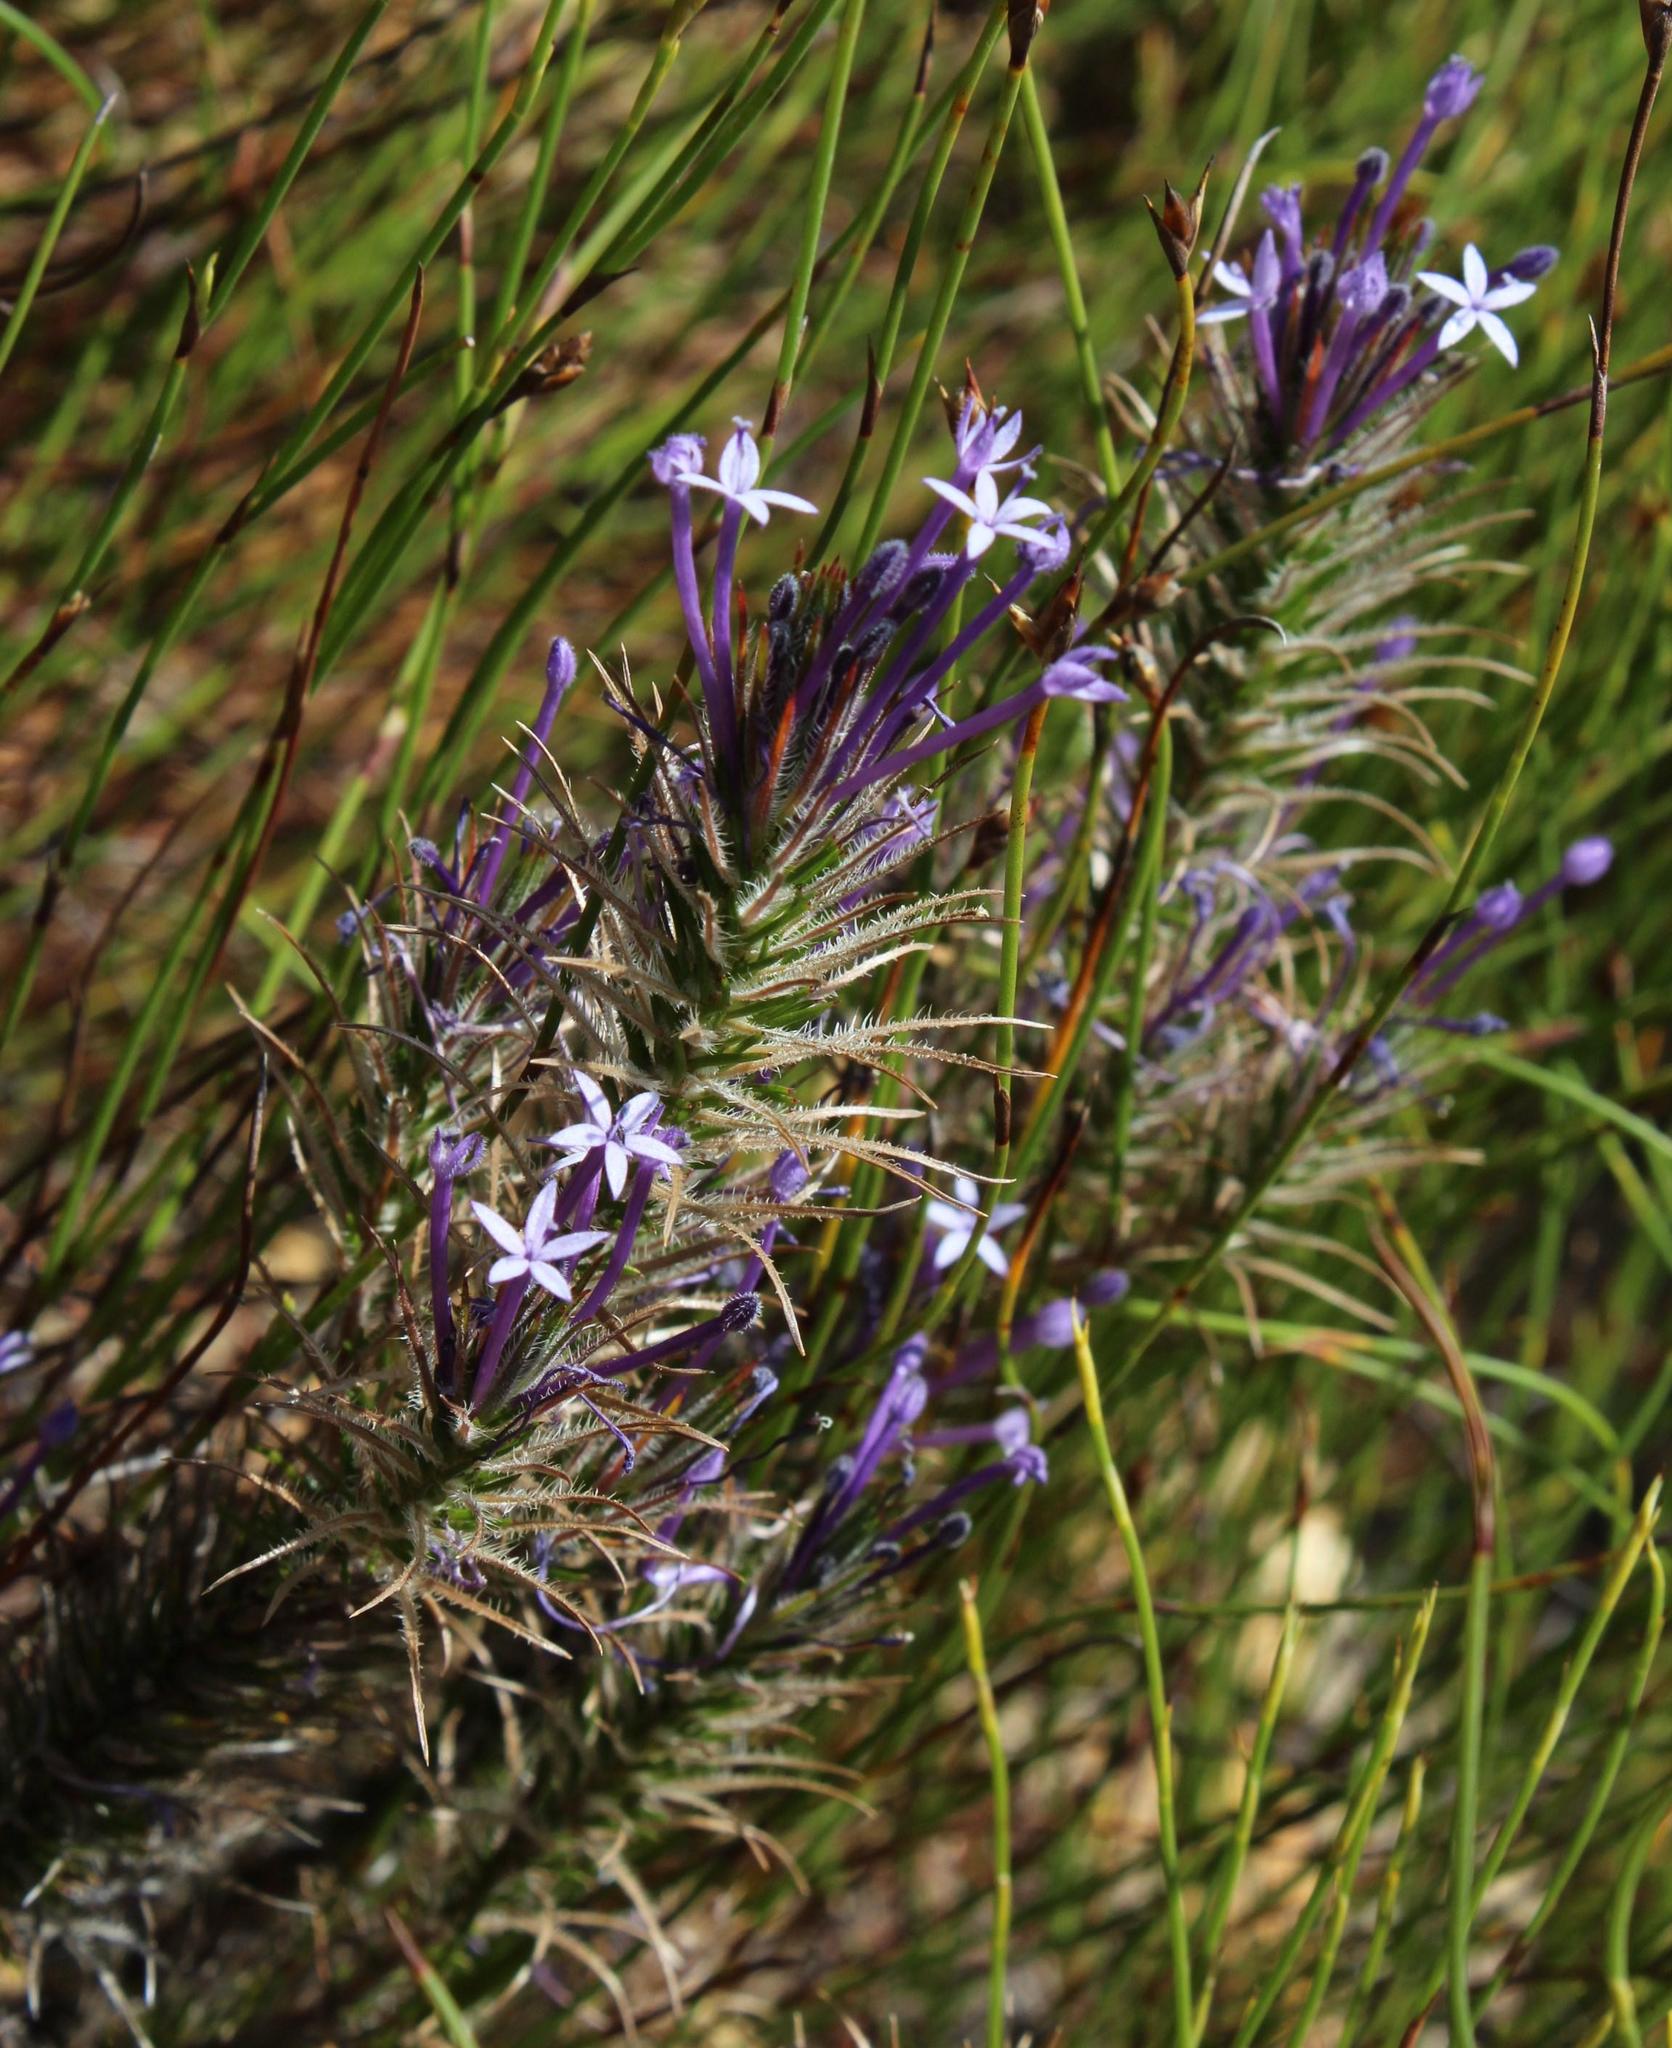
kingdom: Plantae
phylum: Tracheophyta
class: Magnoliopsida
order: Asterales
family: Campanulaceae
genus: Merciera
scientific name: Merciera tenuifolia
